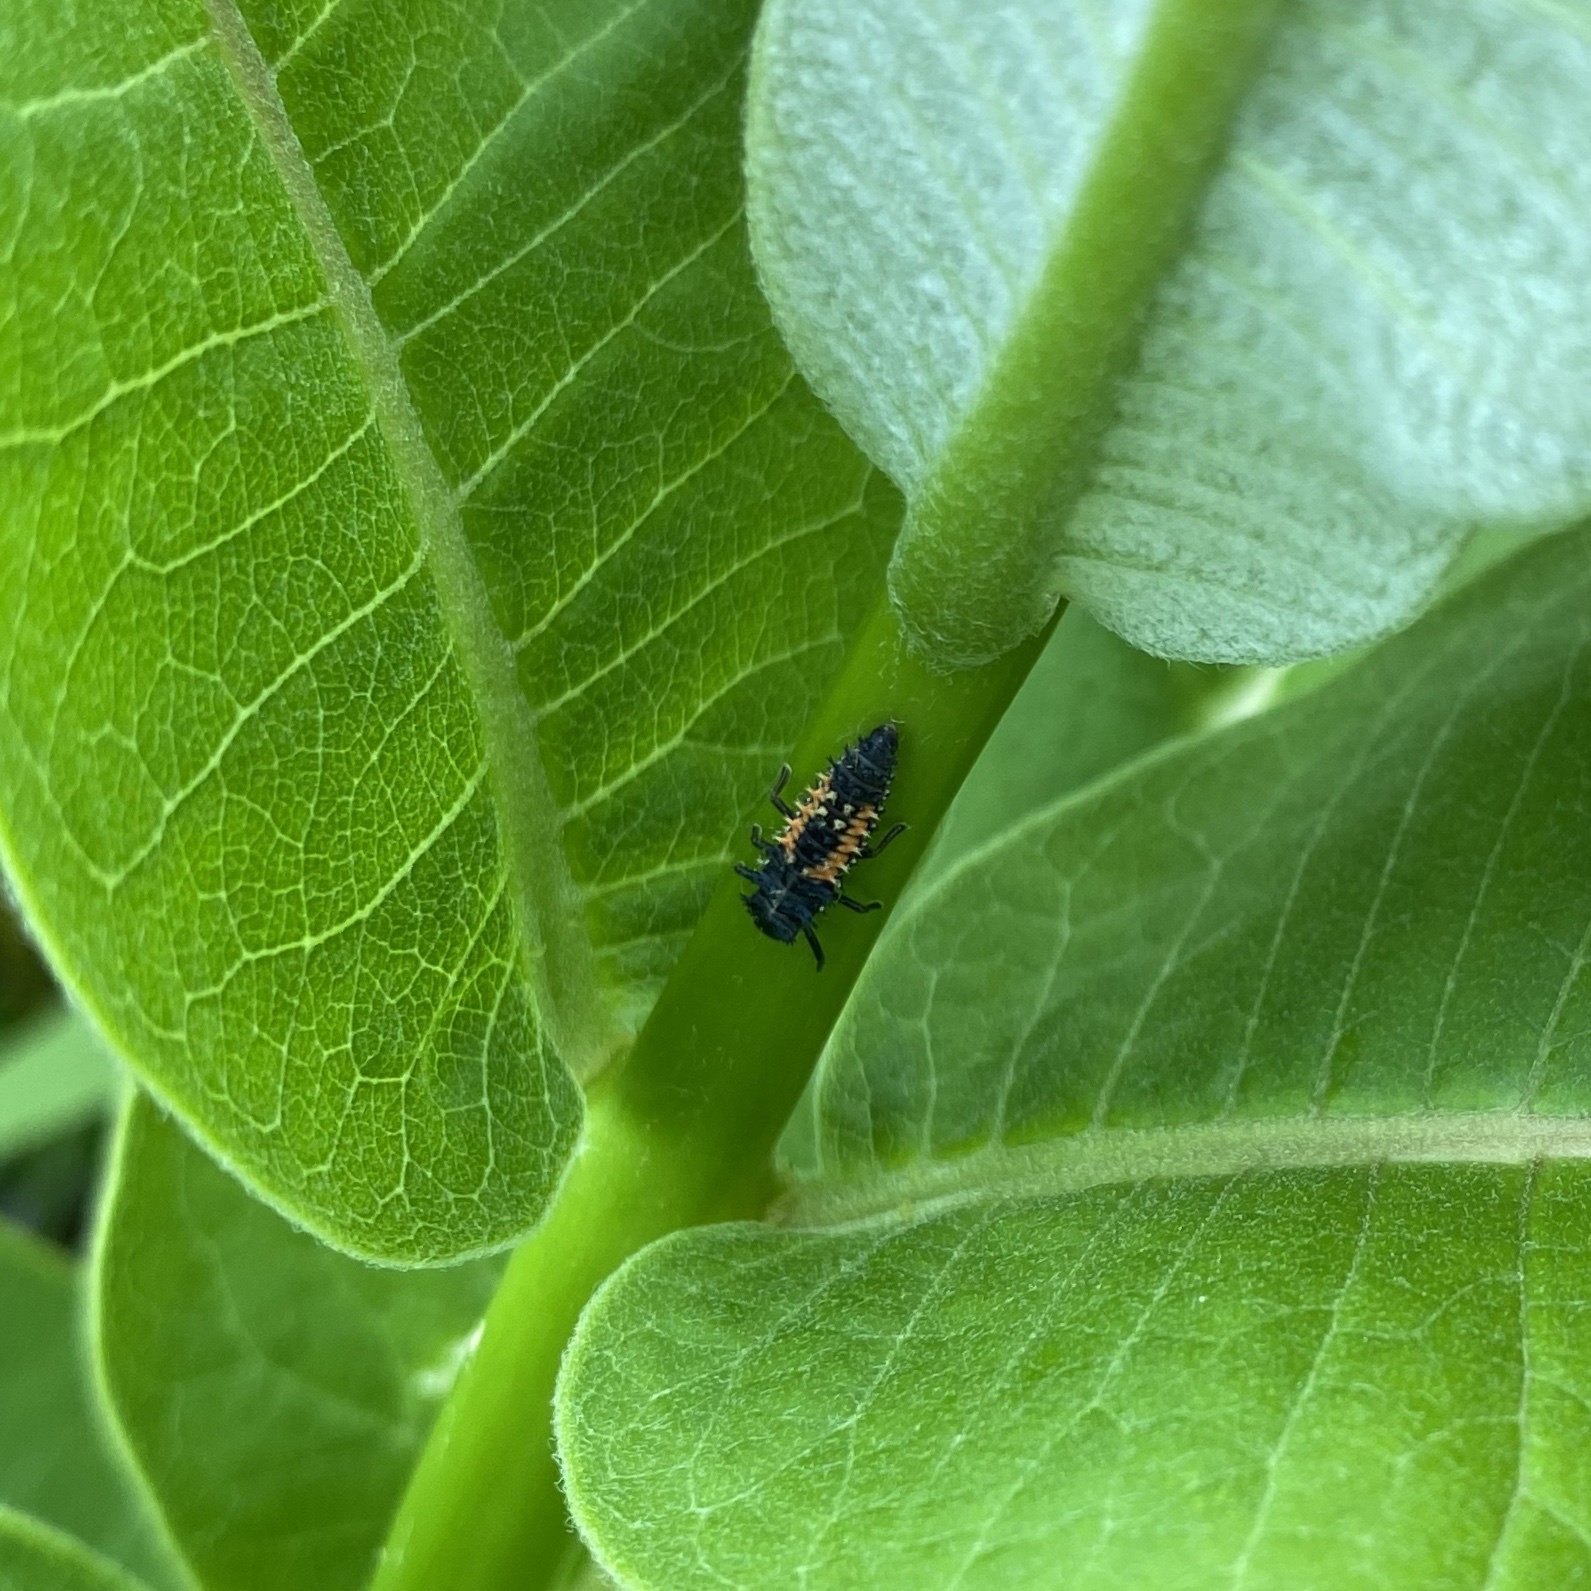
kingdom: Animalia
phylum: Arthropoda
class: Insecta
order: Coleoptera
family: Coccinellidae
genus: Harmonia
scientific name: Harmonia axyridis
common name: Harlequin ladybird
